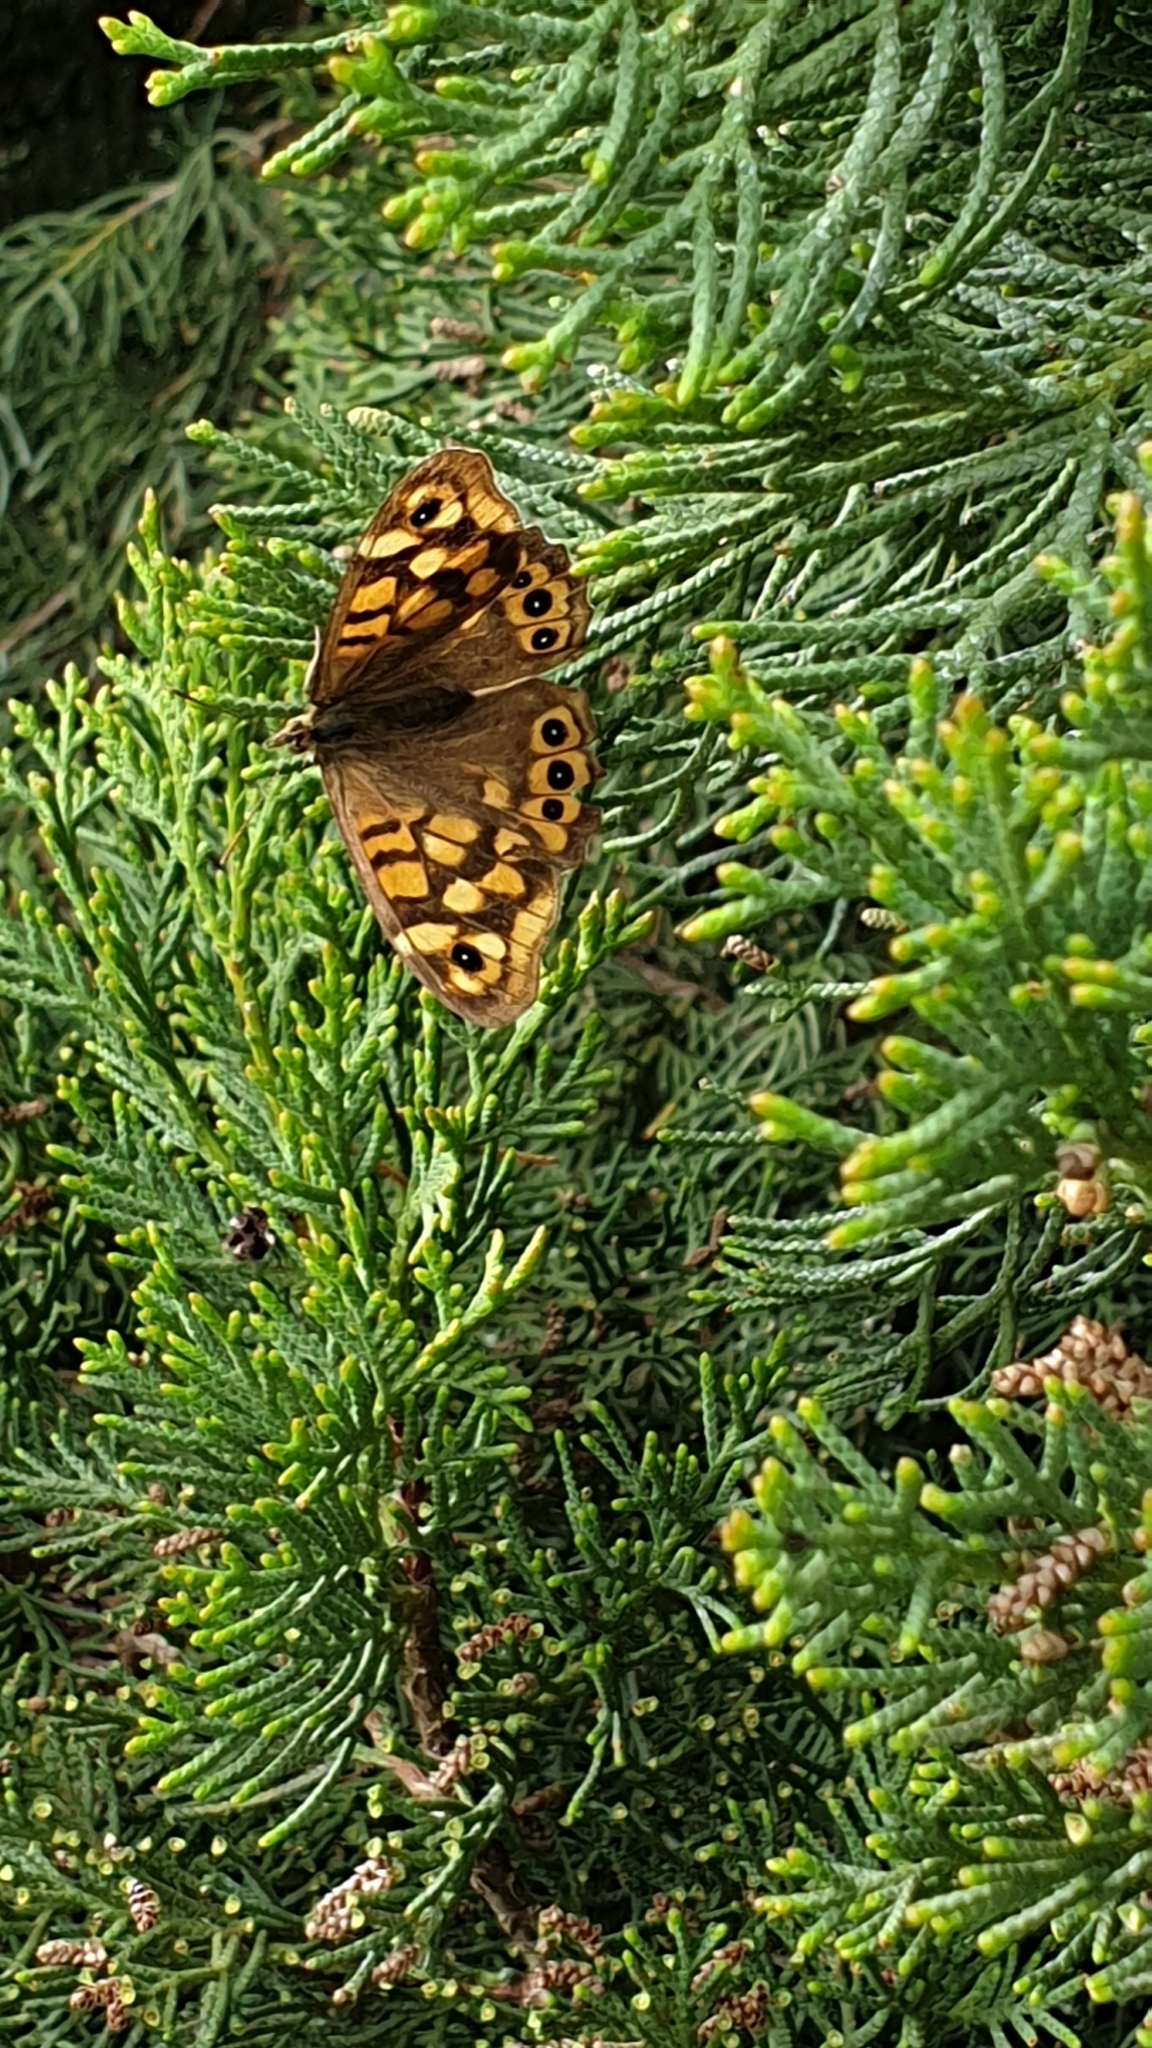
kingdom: Animalia
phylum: Arthropoda
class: Insecta
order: Lepidoptera
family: Nymphalidae
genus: Pararge
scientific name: Pararge aegeria
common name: Speckled wood
